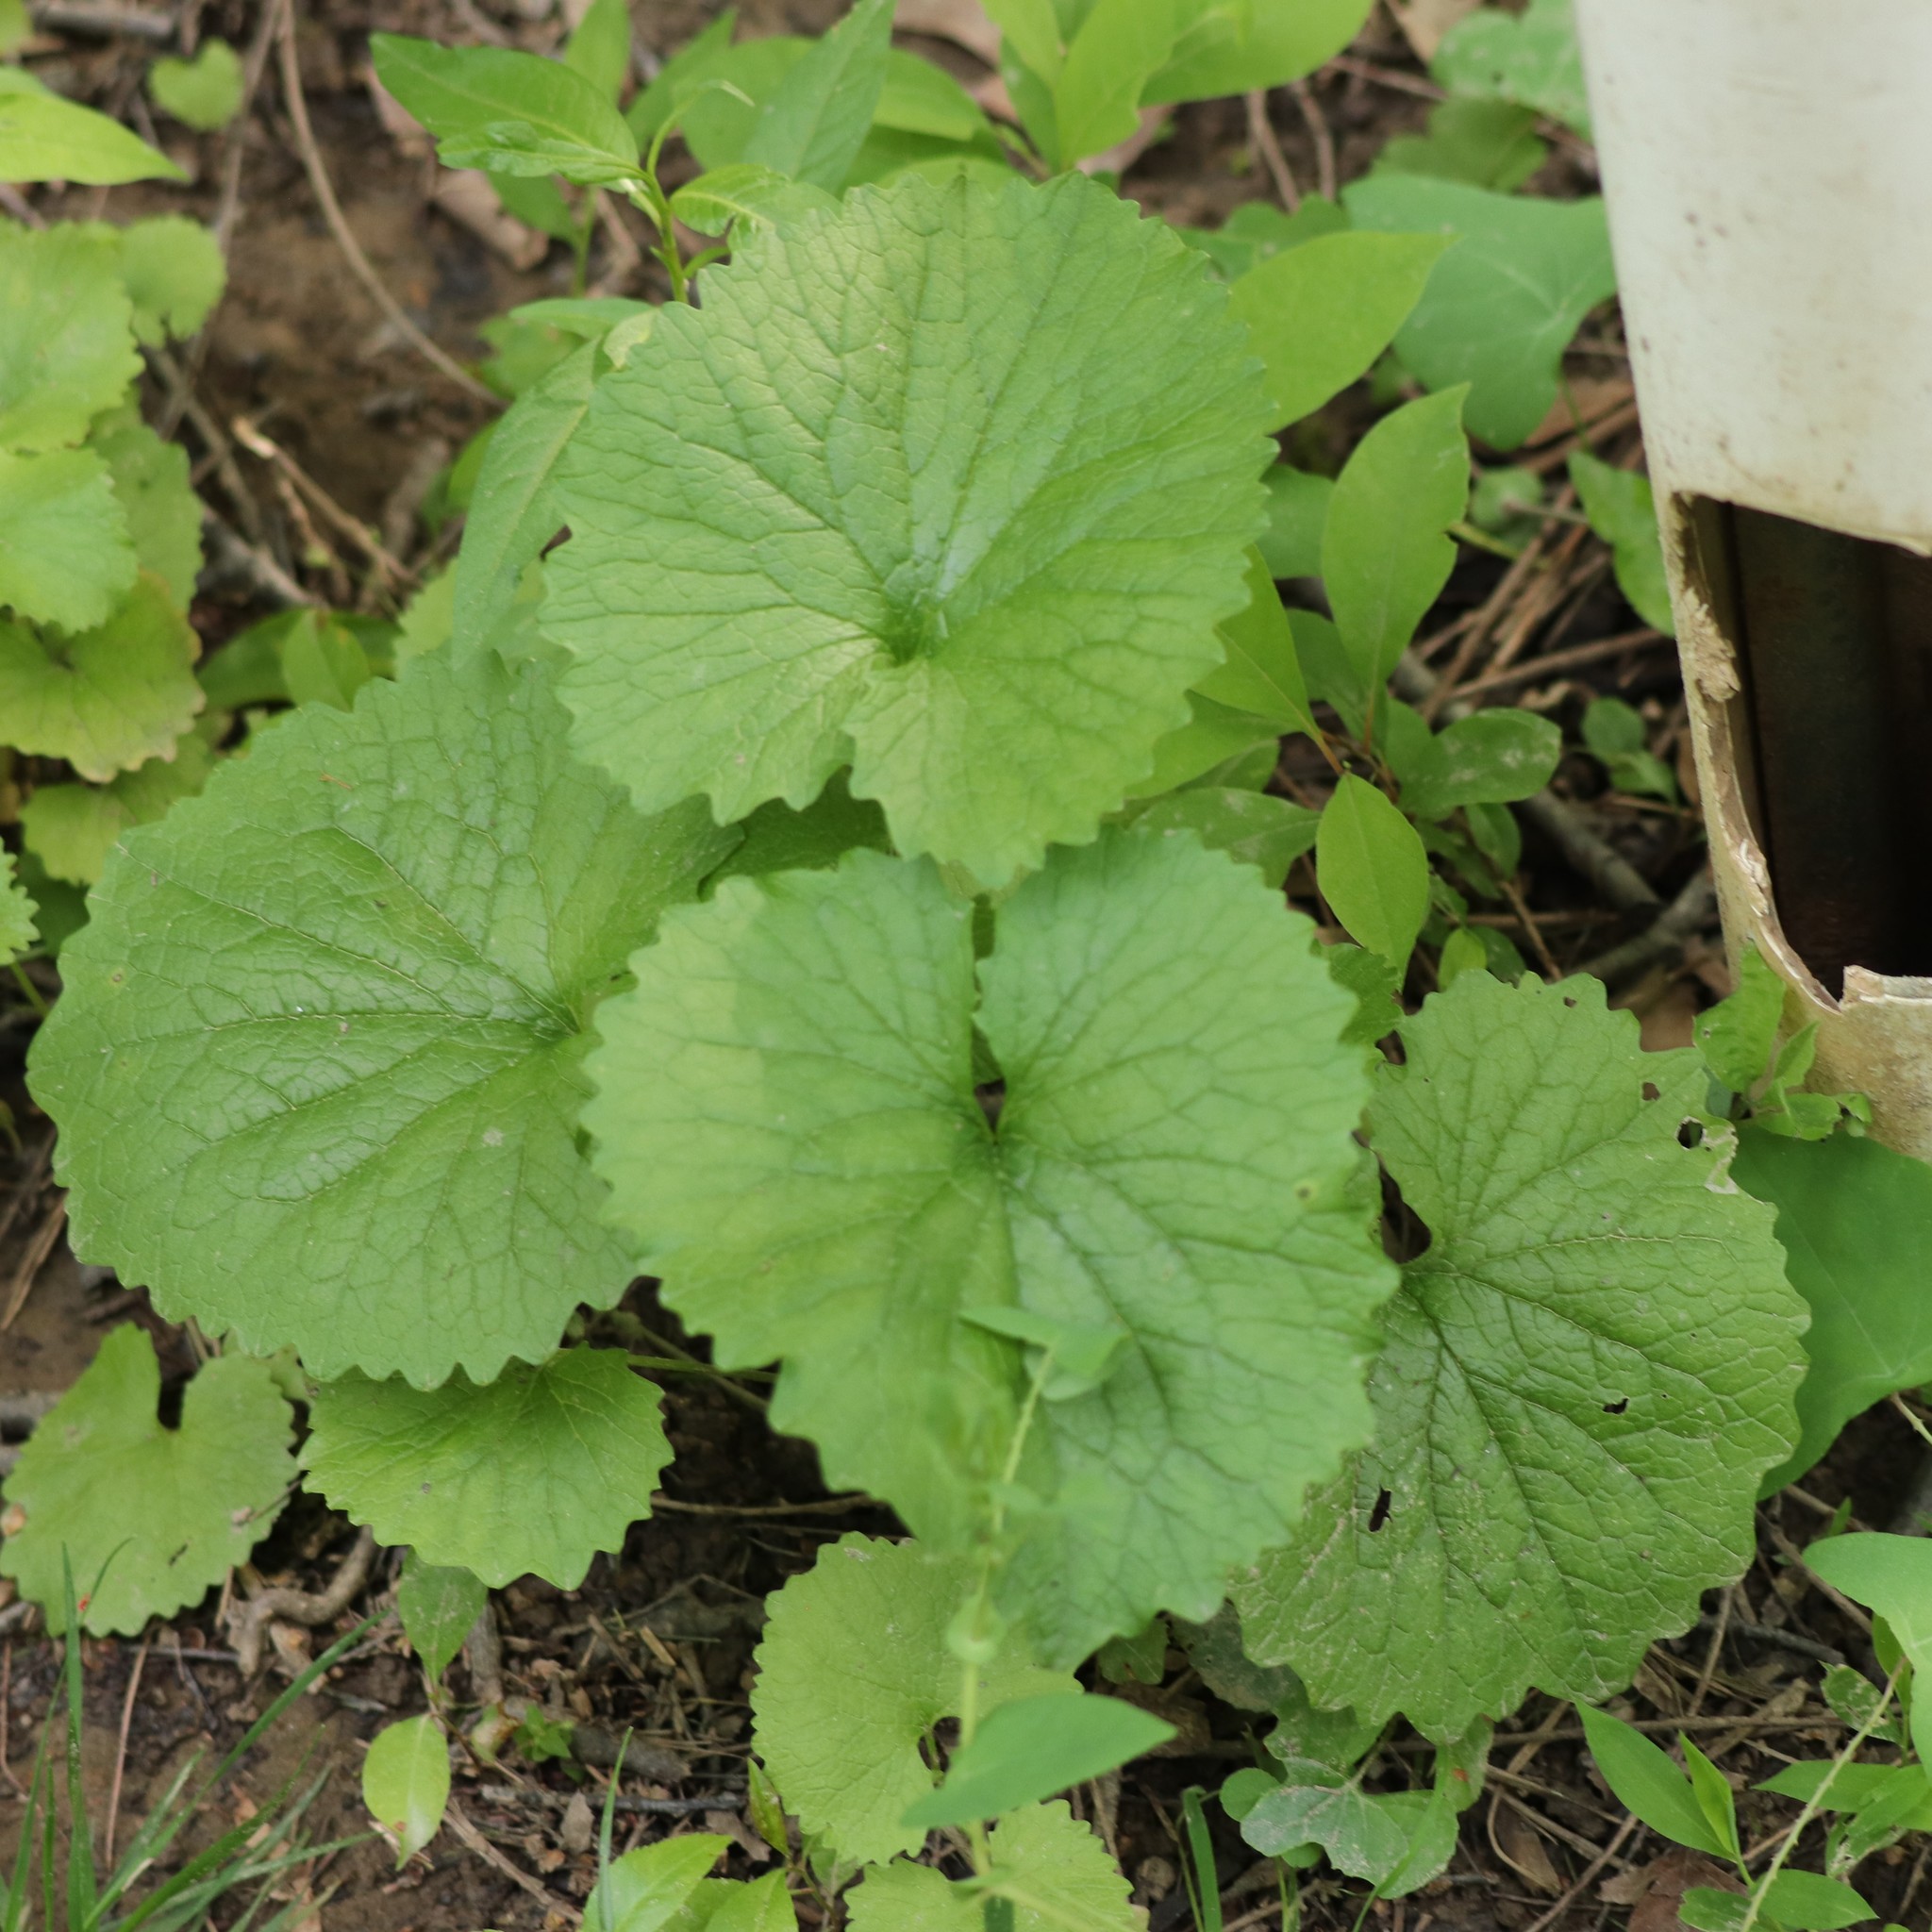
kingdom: Plantae
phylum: Tracheophyta
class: Magnoliopsida
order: Brassicales
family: Brassicaceae
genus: Alliaria
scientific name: Alliaria petiolata
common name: Garlic mustard
